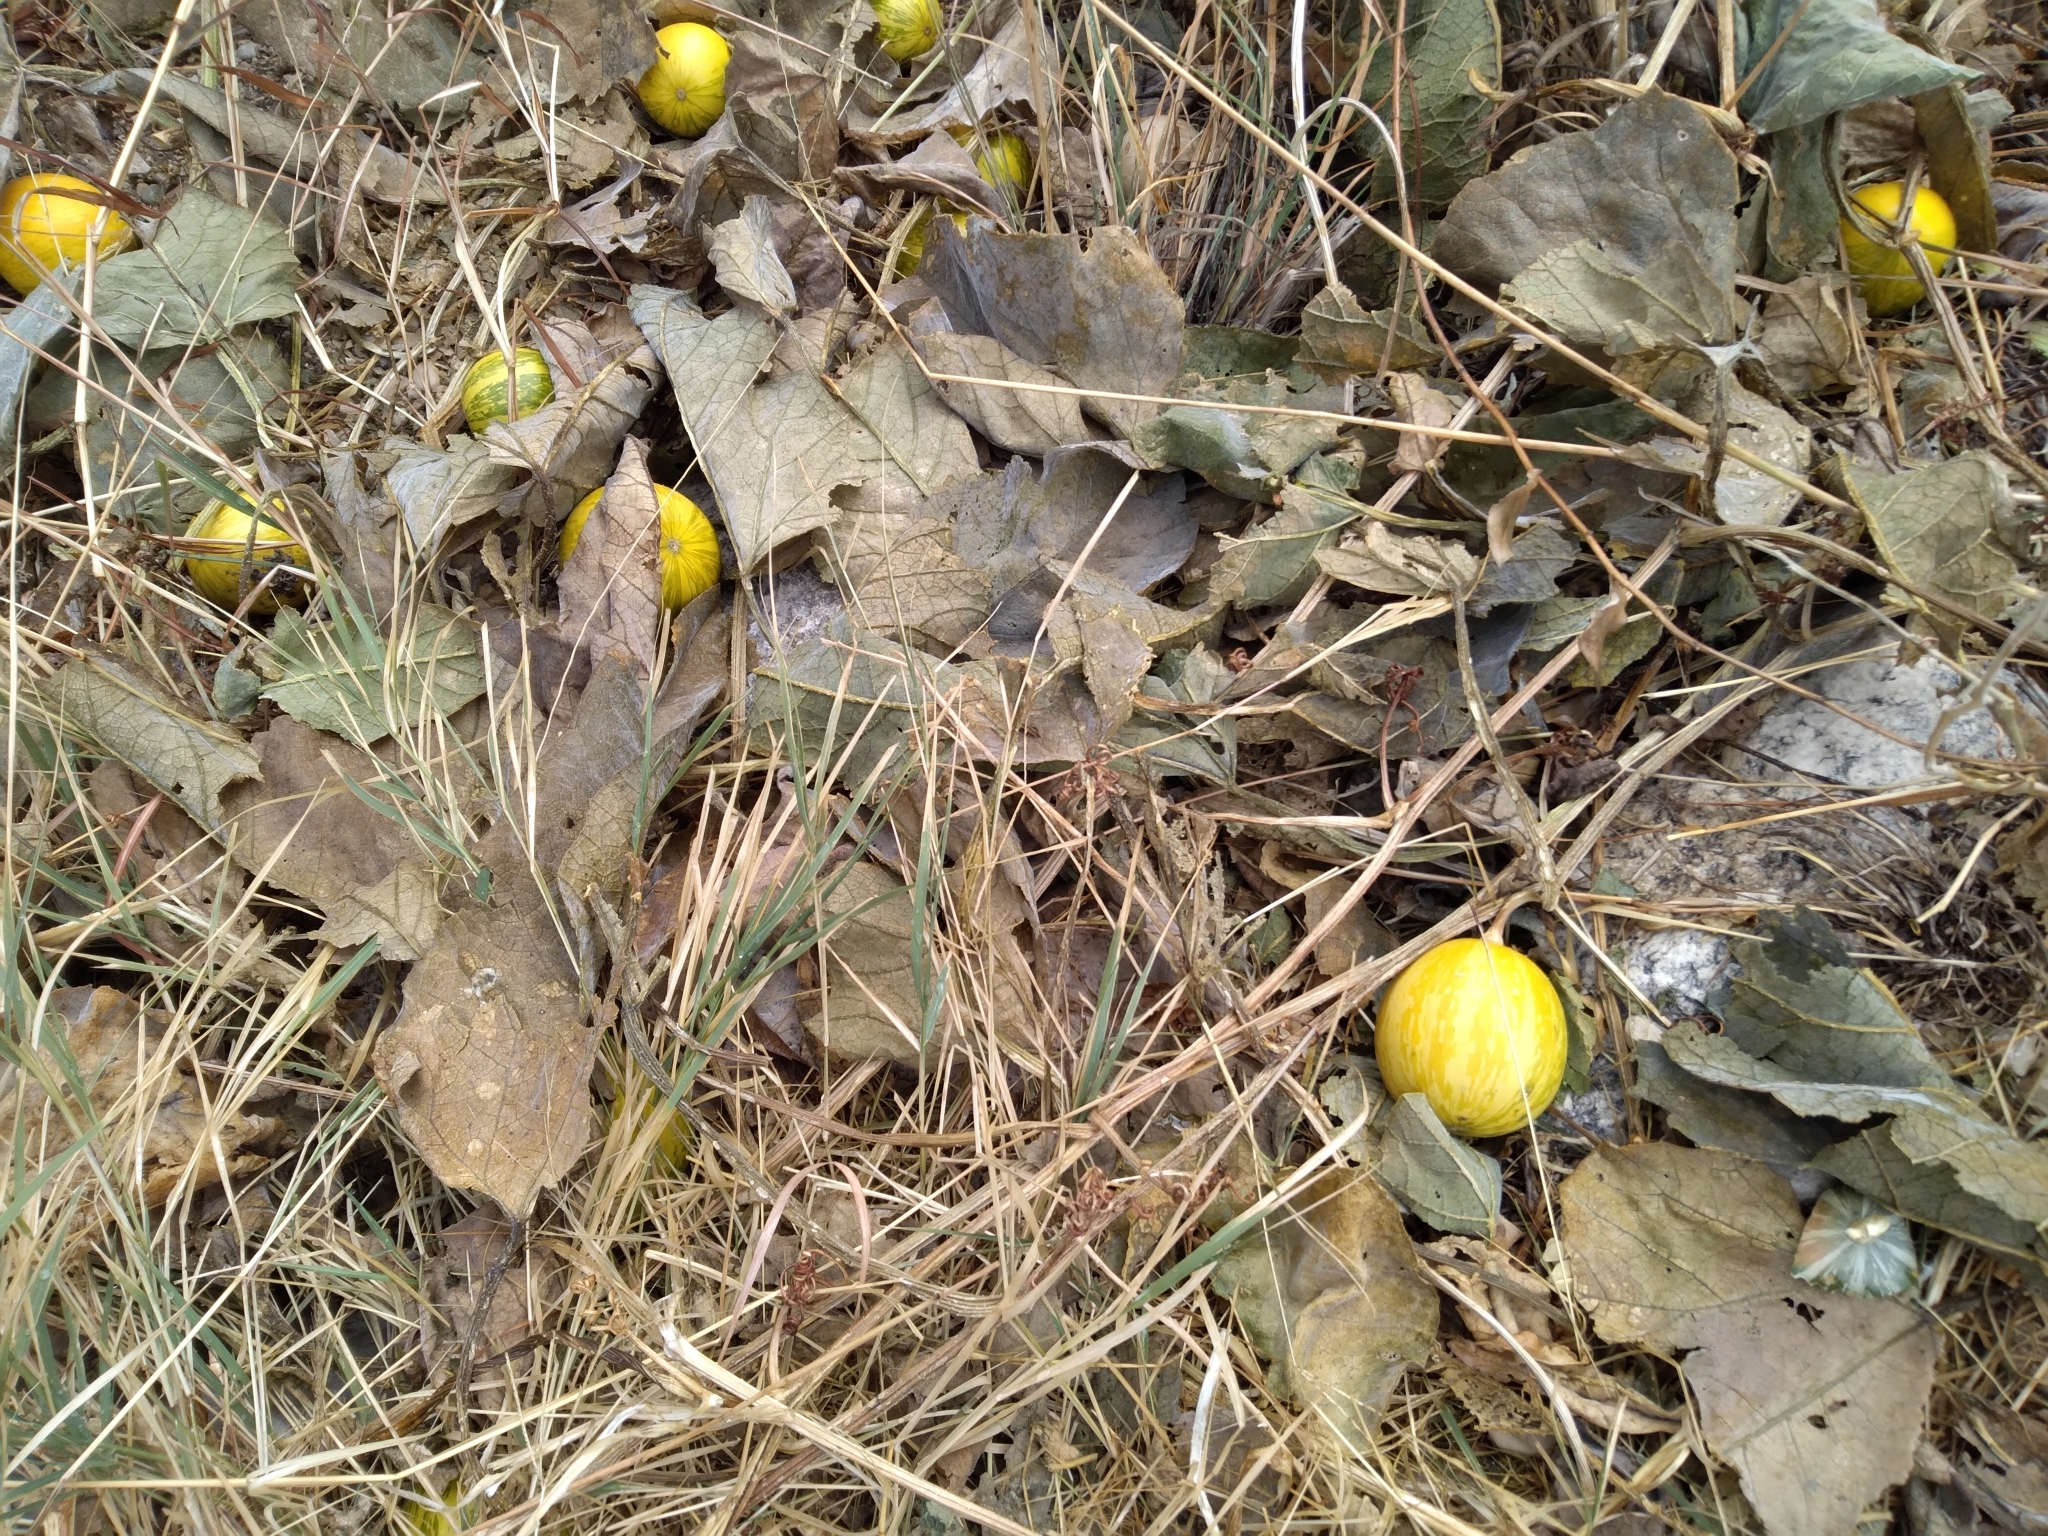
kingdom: Plantae
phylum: Tracheophyta
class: Magnoliopsida
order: Cucurbitales
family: Cucurbitaceae
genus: Cucurbita
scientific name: Cucurbita foetidissima
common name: Buffalo gourd
